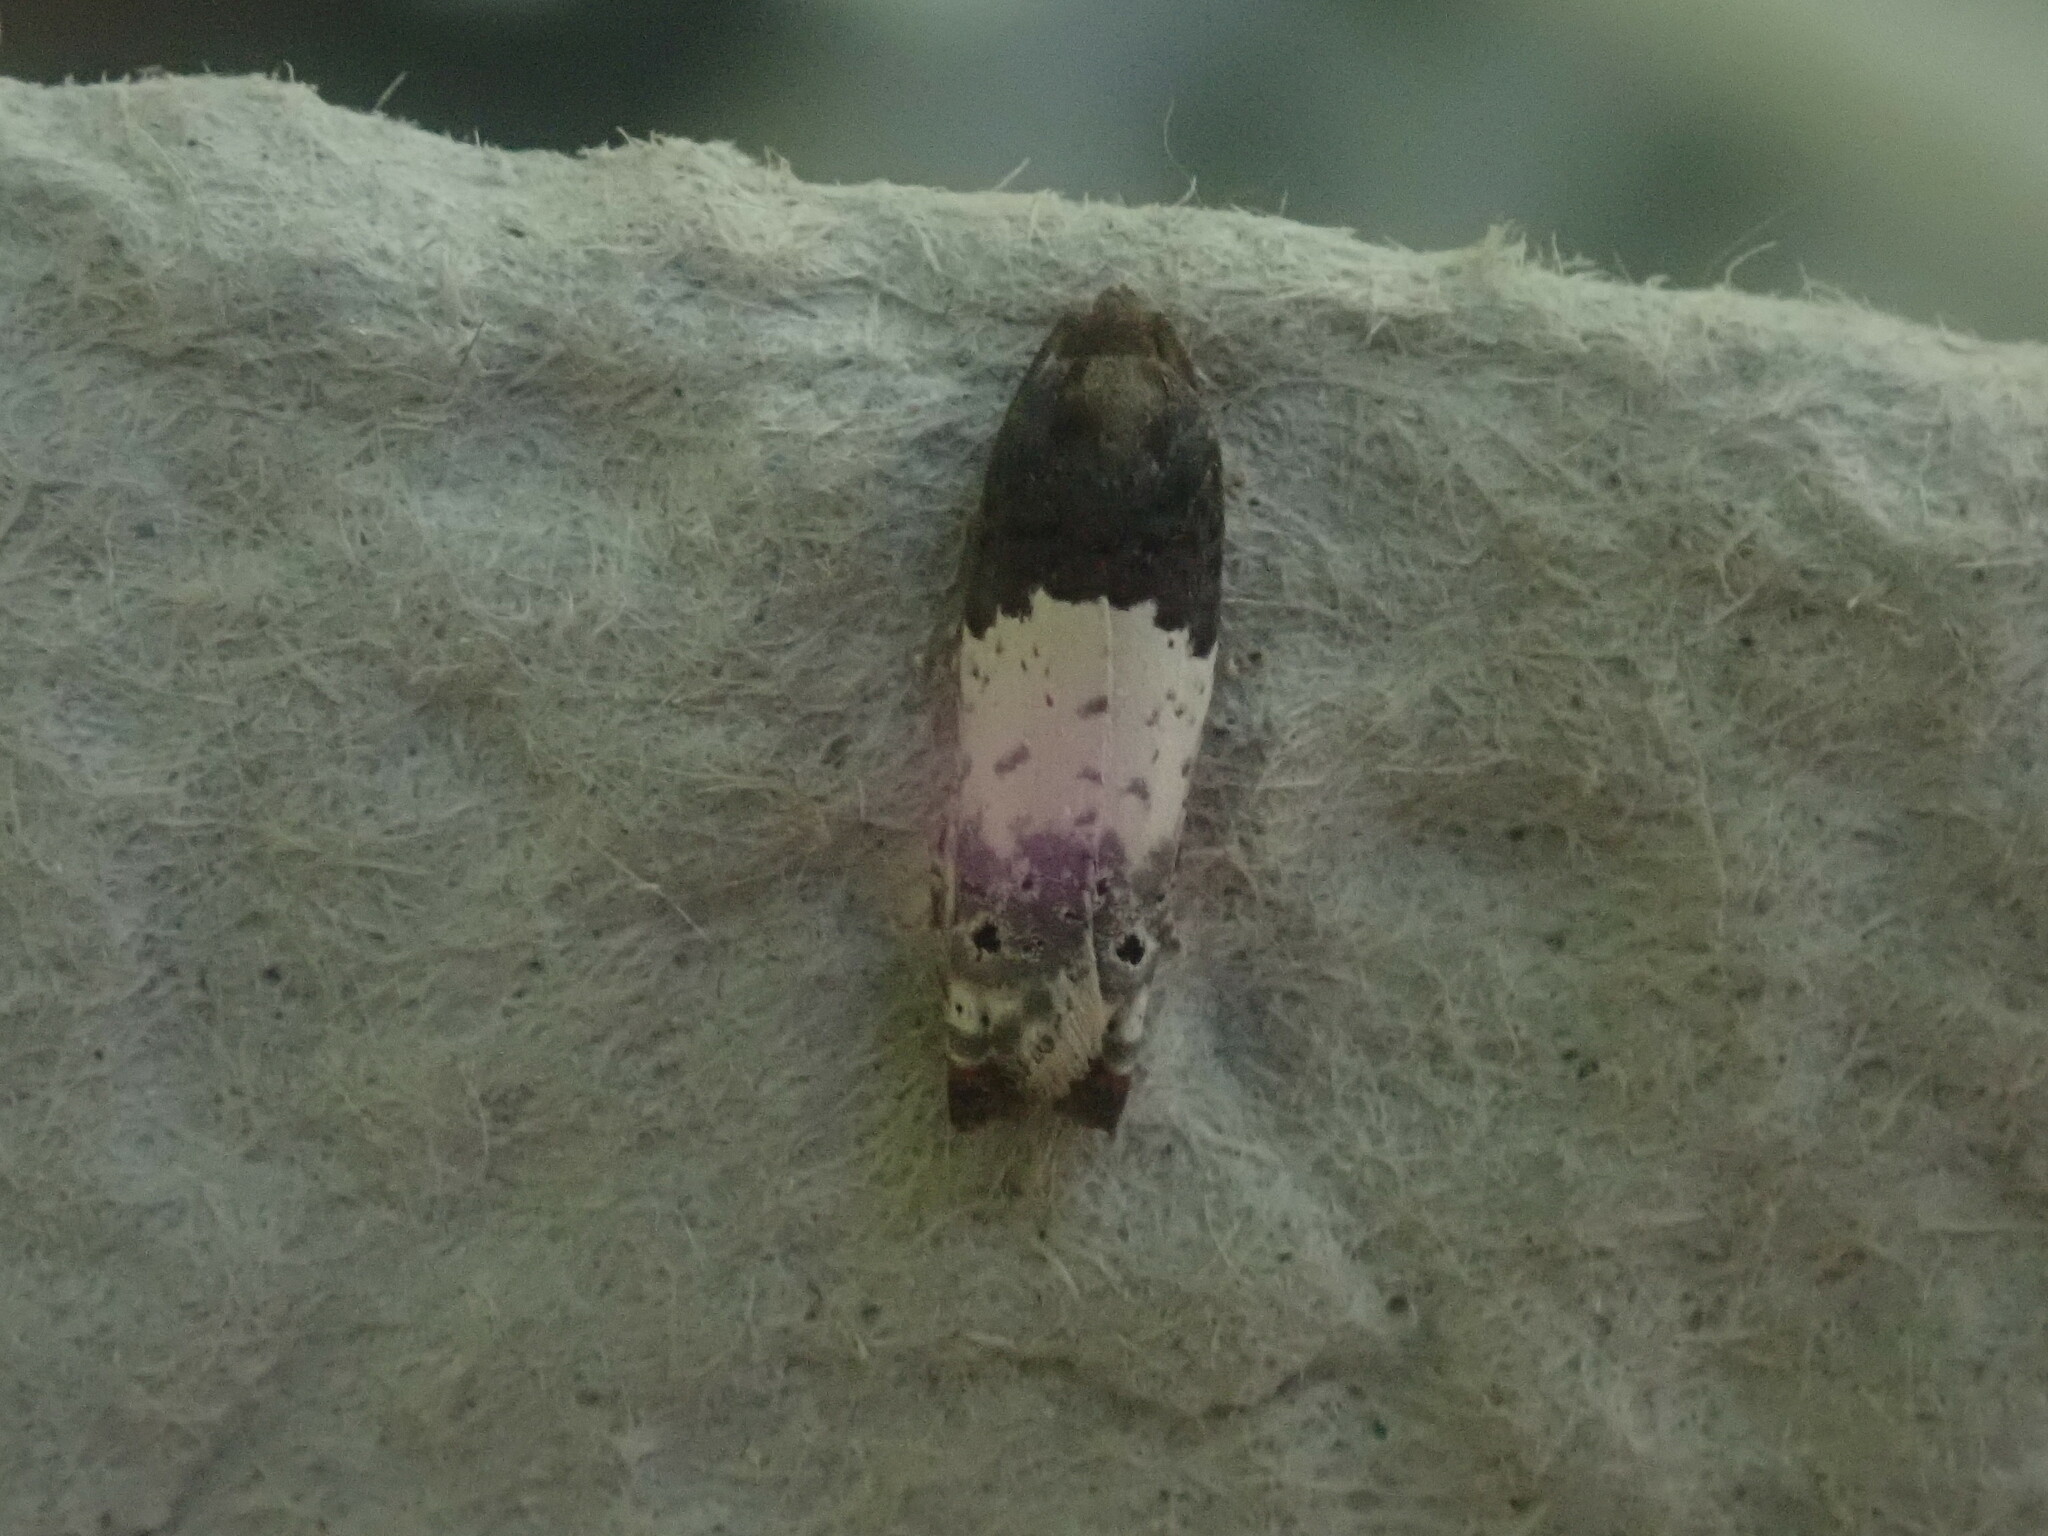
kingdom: Animalia
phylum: Arthropoda
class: Insecta
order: Lepidoptera
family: Tortricidae
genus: Epiblema
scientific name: Epiblema scudderiana
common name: Goldenrod gall moth
